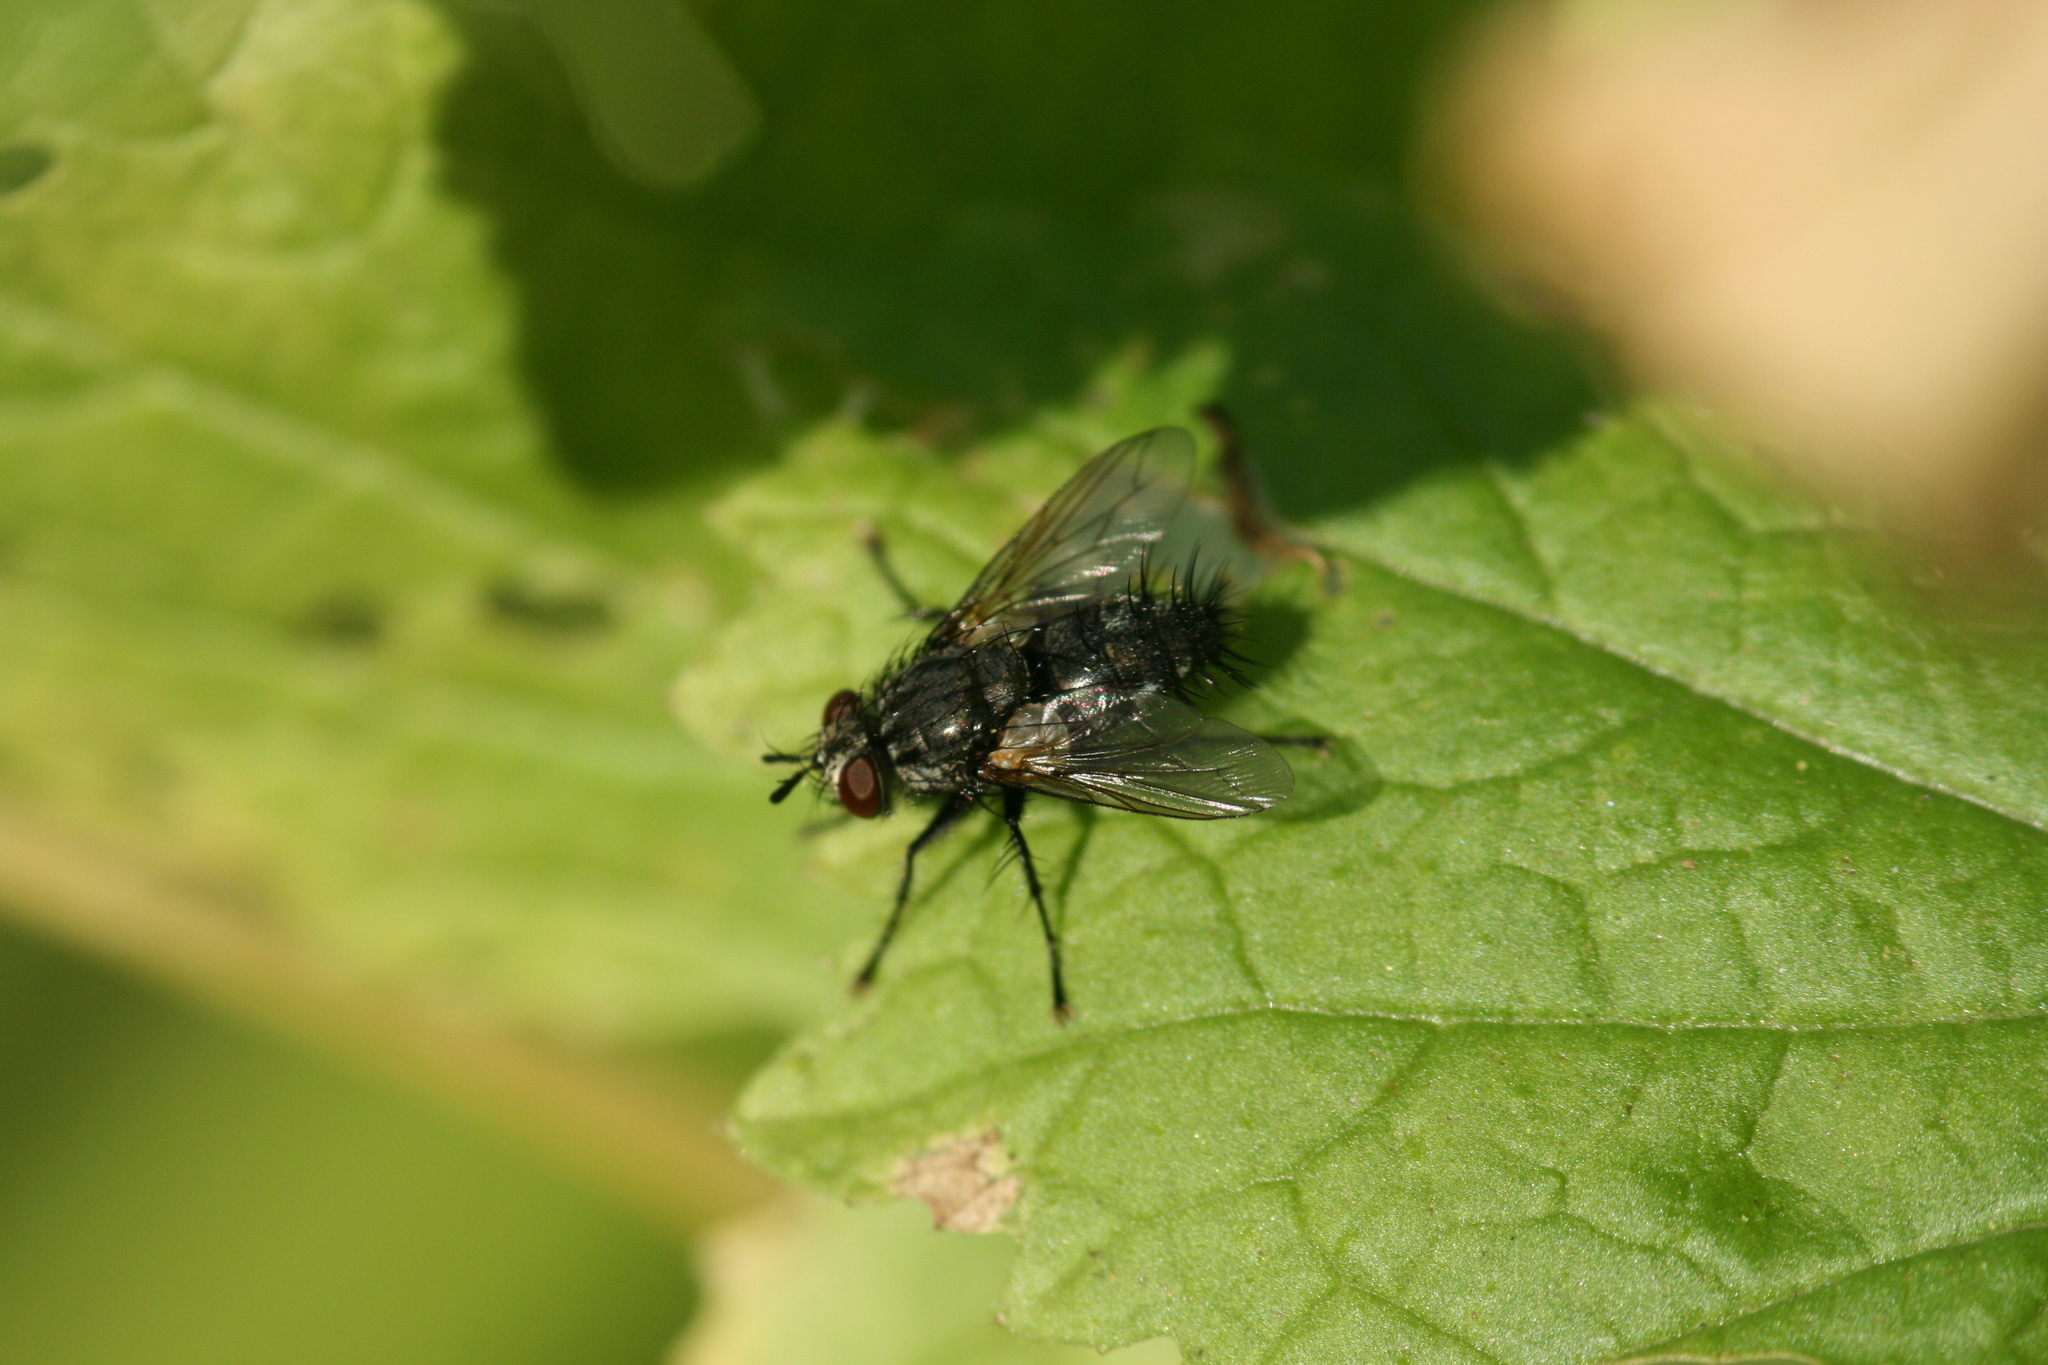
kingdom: Animalia
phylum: Arthropoda
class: Insecta
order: Diptera
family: Tachinidae
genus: Voria
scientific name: Voria ruralis
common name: Parasitic fly
